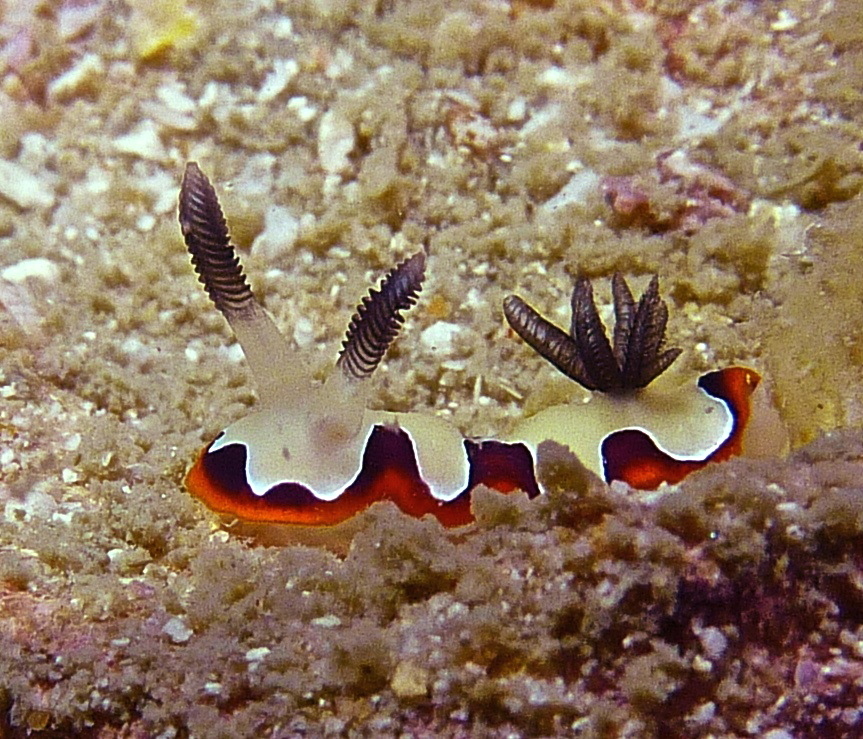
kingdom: Animalia
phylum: Mollusca
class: Gastropoda
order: Nudibranchia
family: Chromodorididae
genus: Goniobranchus
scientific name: Goniobranchus fidelis
